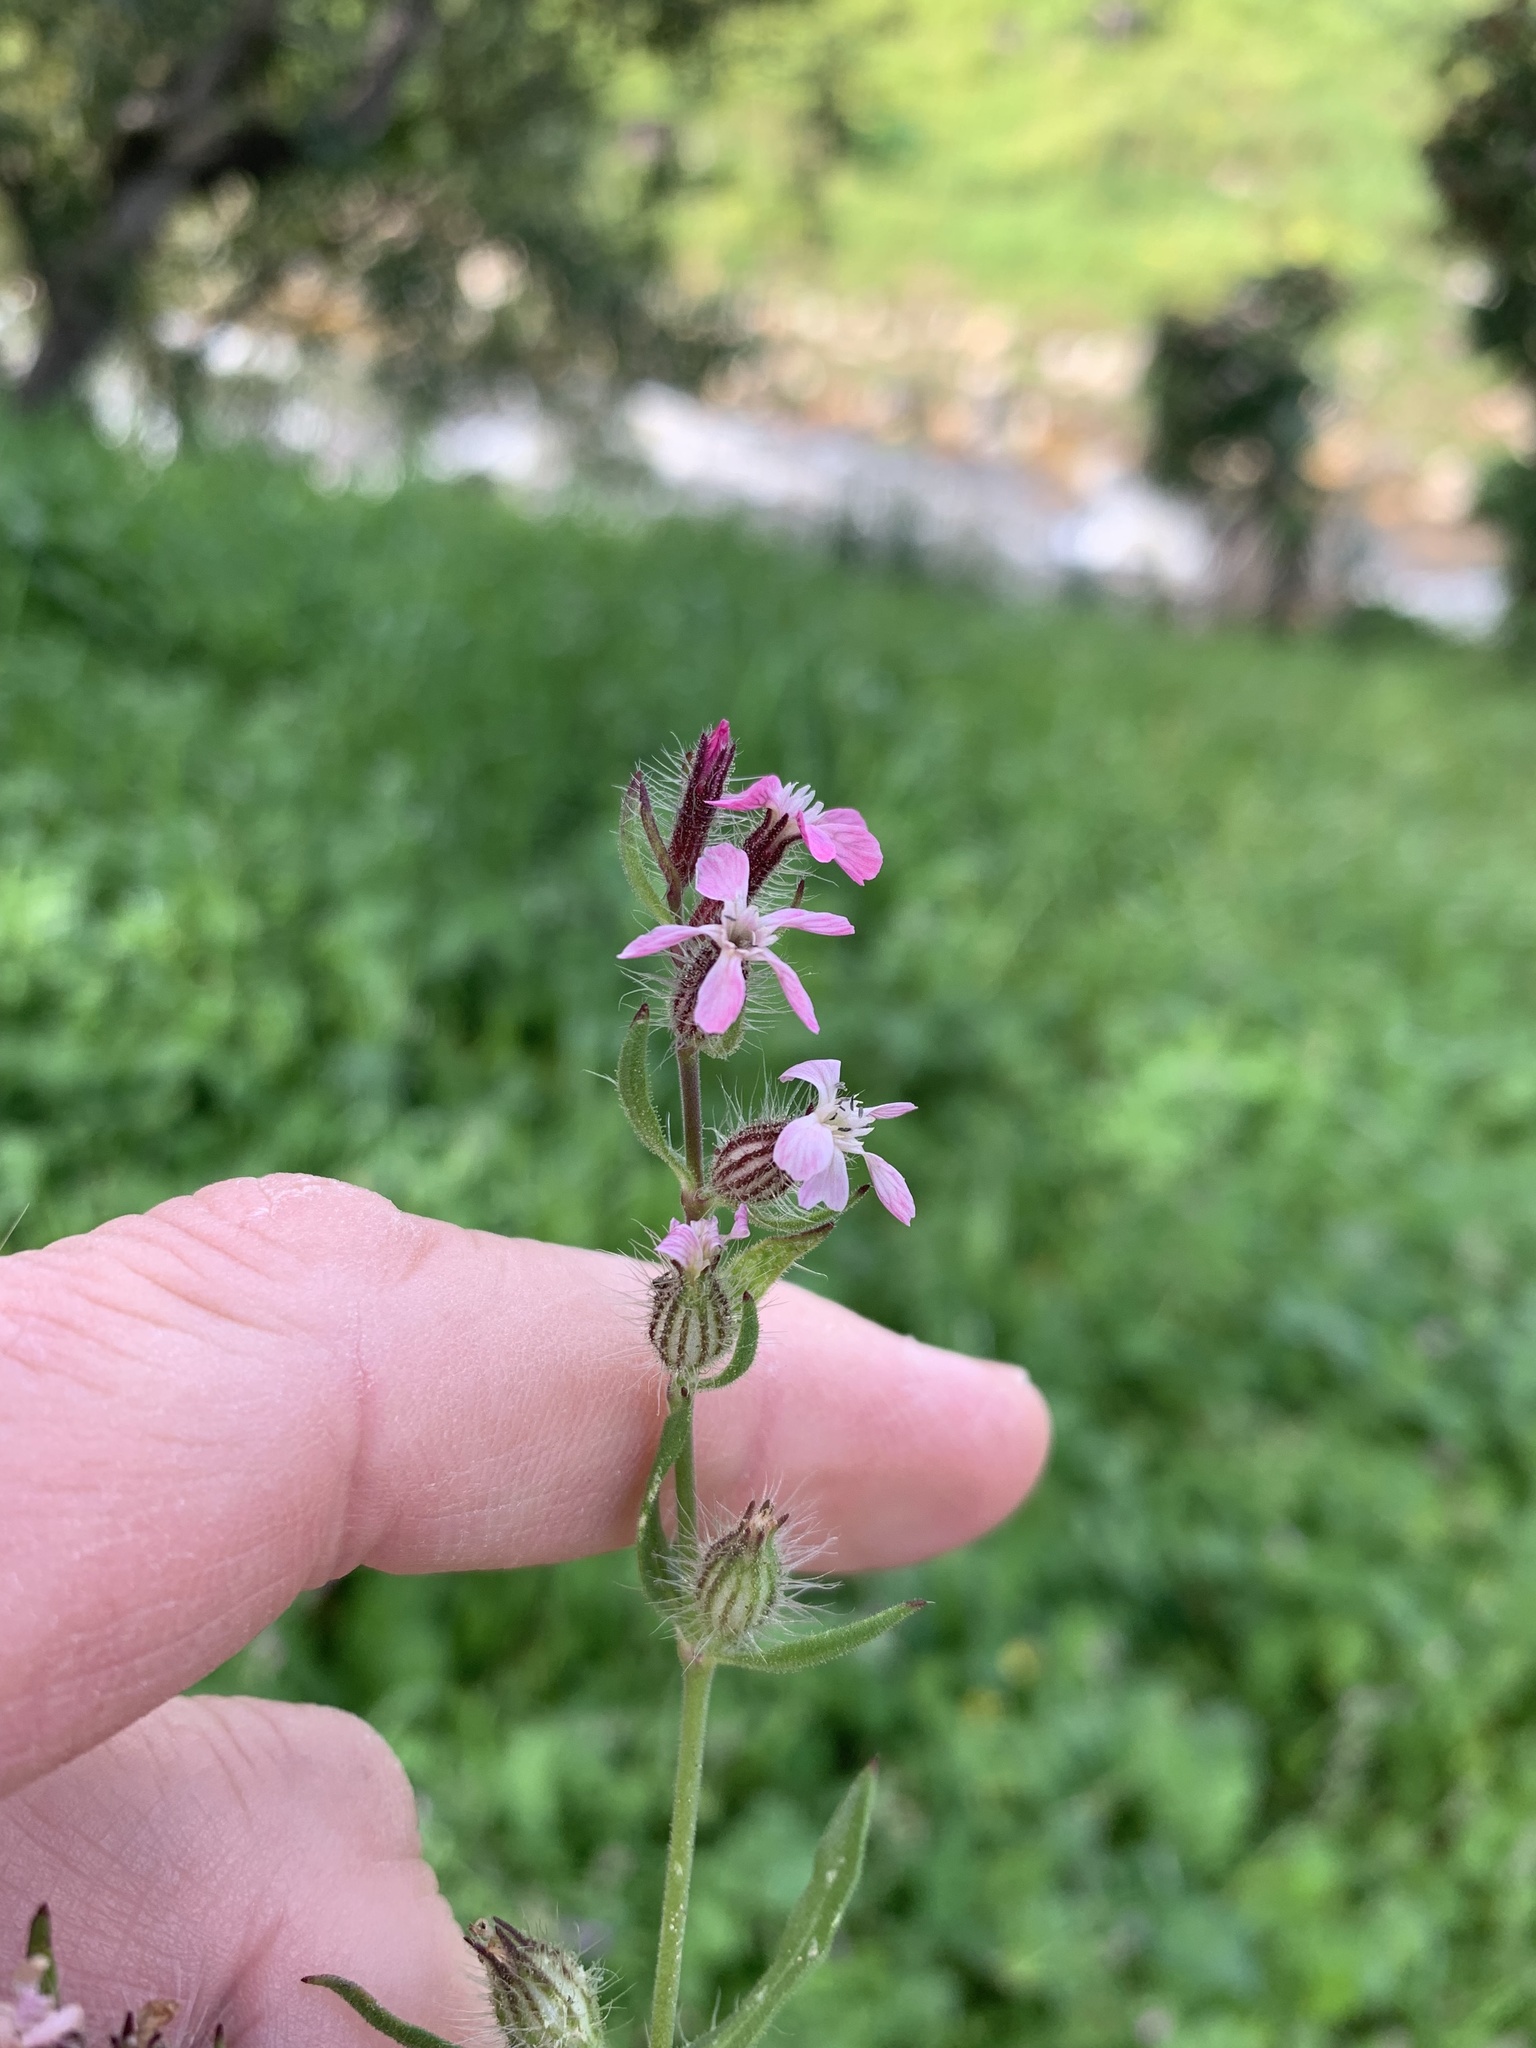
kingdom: Plantae
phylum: Tracheophyta
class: Magnoliopsida
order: Caryophyllales
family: Caryophyllaceae
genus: Silene
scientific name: Silene gallica
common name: Small-flowered catchfly
